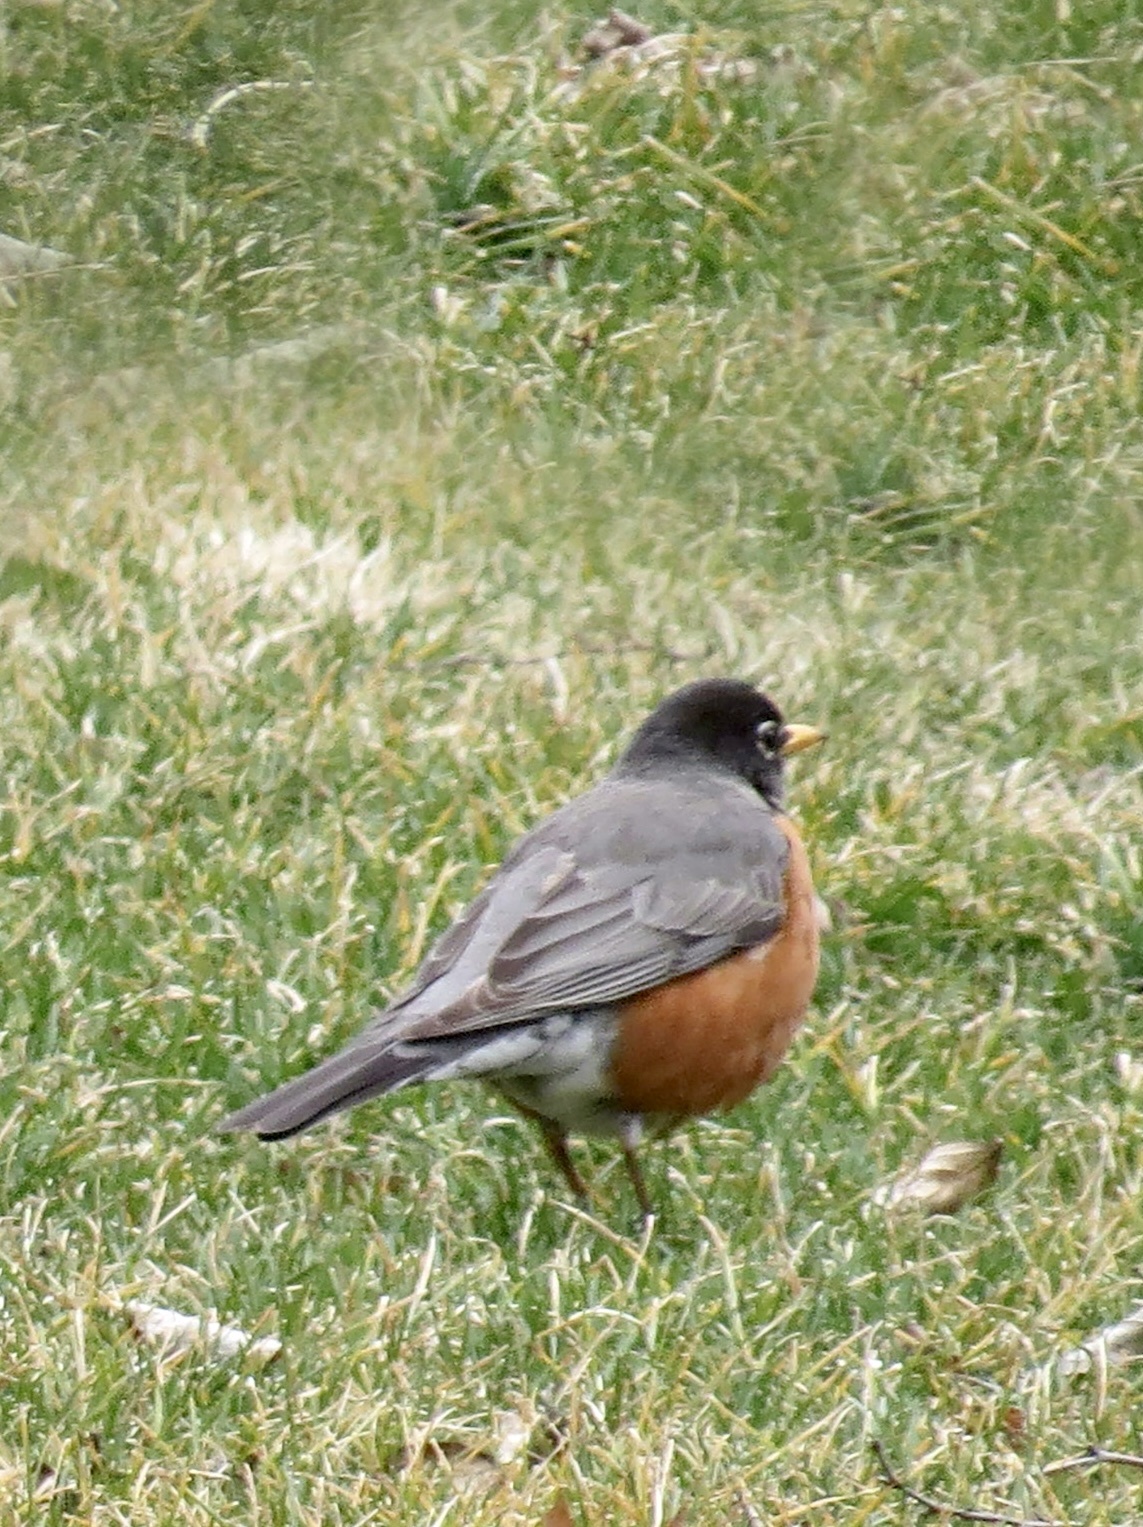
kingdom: Animalia
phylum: Chordata
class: Aves
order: Passeriformes
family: Turdidae
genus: Turdus
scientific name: Turdus migratorius
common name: American robin
